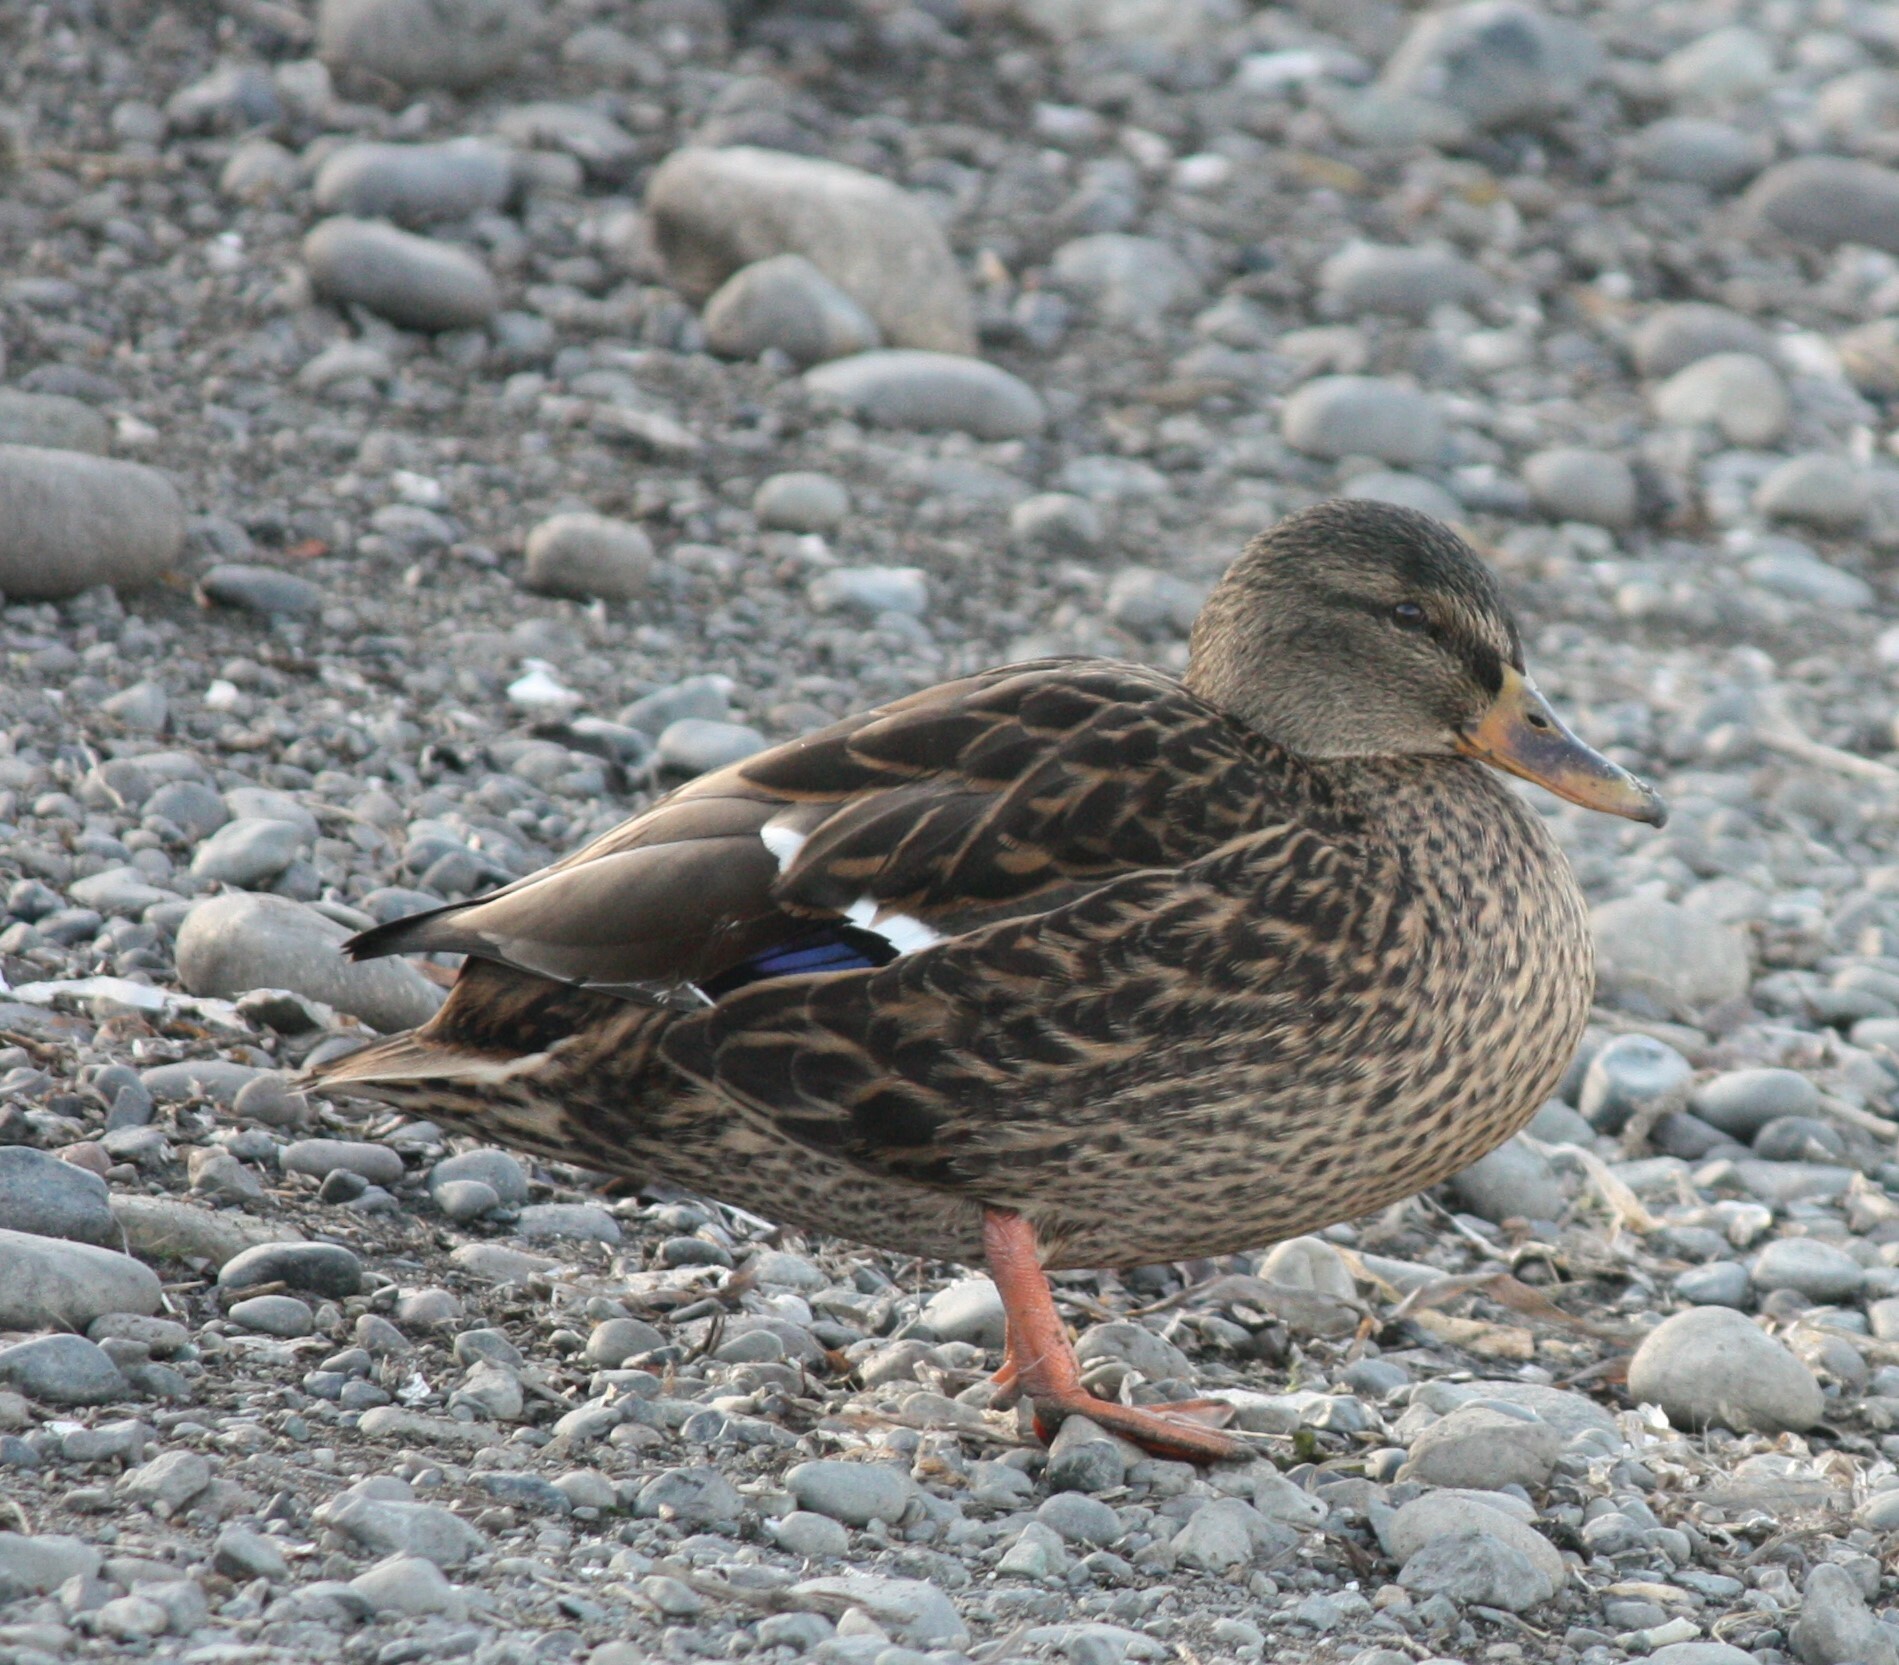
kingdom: Animalia
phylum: Chordata
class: Aves
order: Anseriformes
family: Anatidae
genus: Anas
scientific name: Anas platyrhynchos
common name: Mallard
